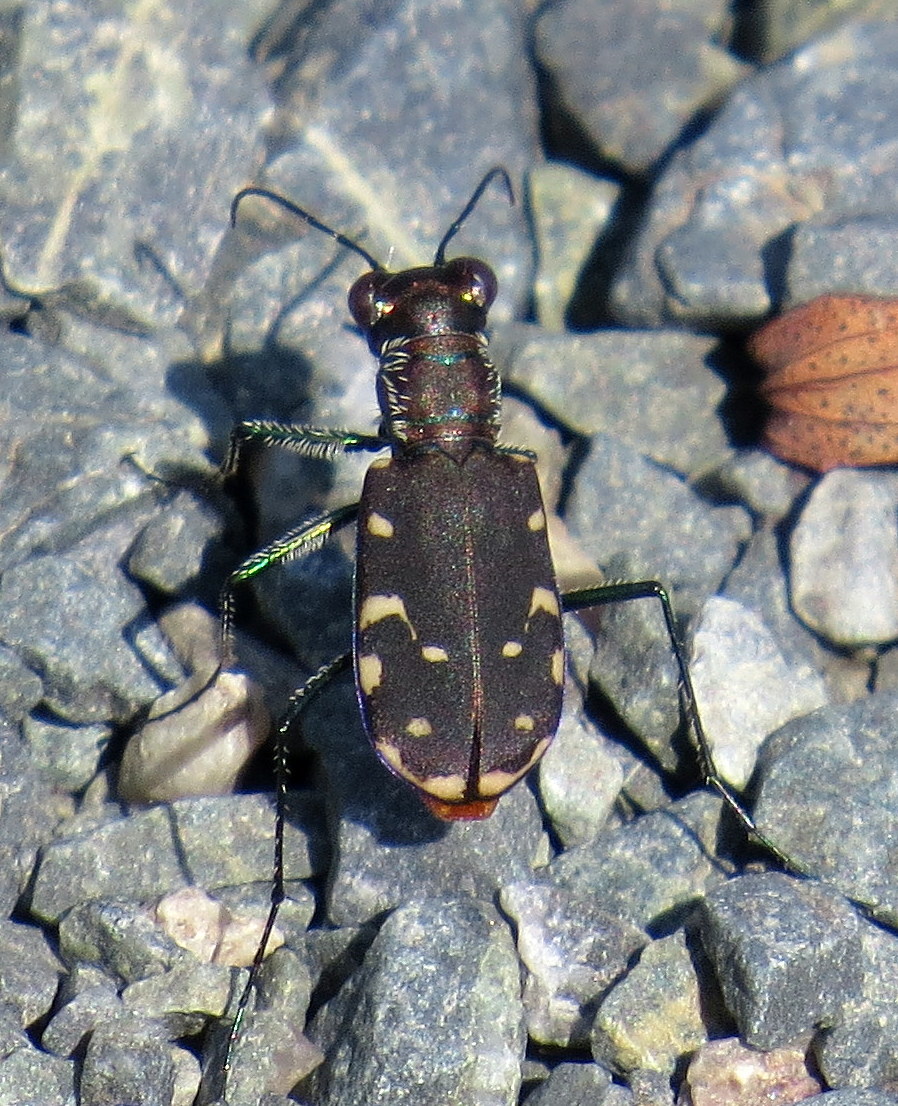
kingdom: Animalia
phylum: Arthropoda
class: Insecta
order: Coleoptera
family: Carabidae
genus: Cicindela
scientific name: Cicindela rufiventris
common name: Eastern red-bellied tiger beetle
